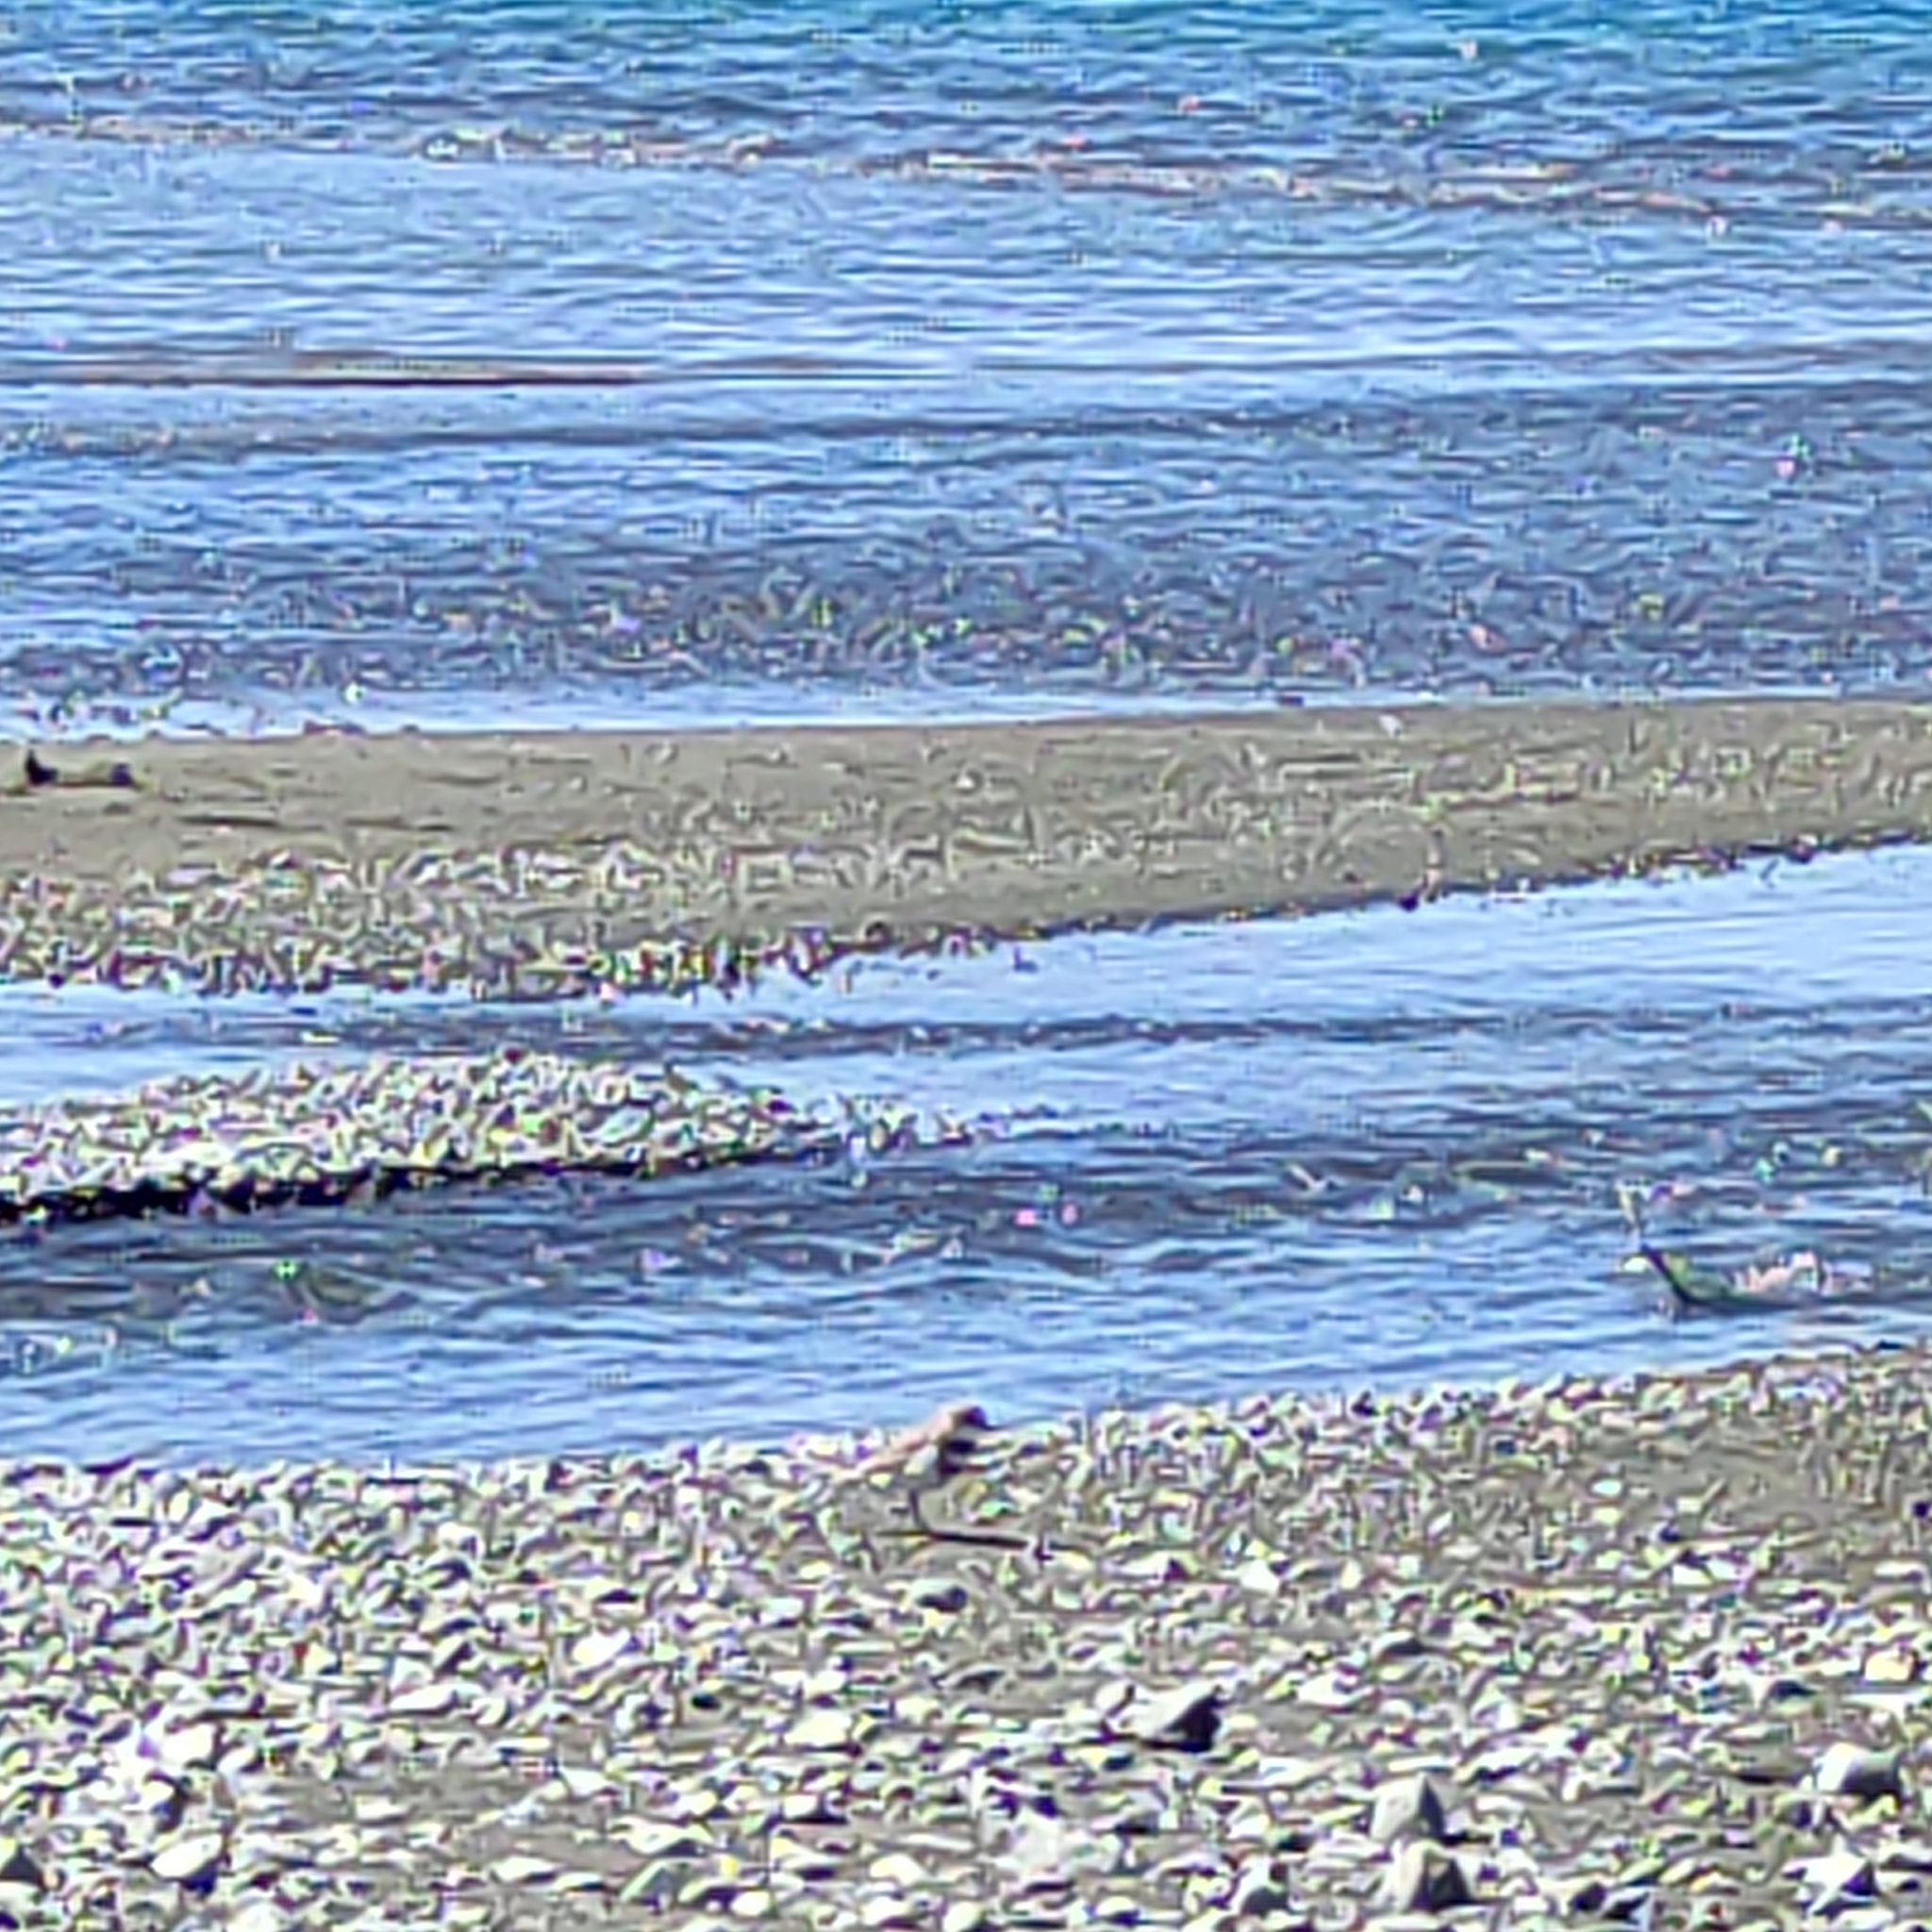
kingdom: Animalia
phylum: Chordata
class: Aves
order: Charadriiformes
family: Charadriidae
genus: Anarhynchus
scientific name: Anarhynchus
